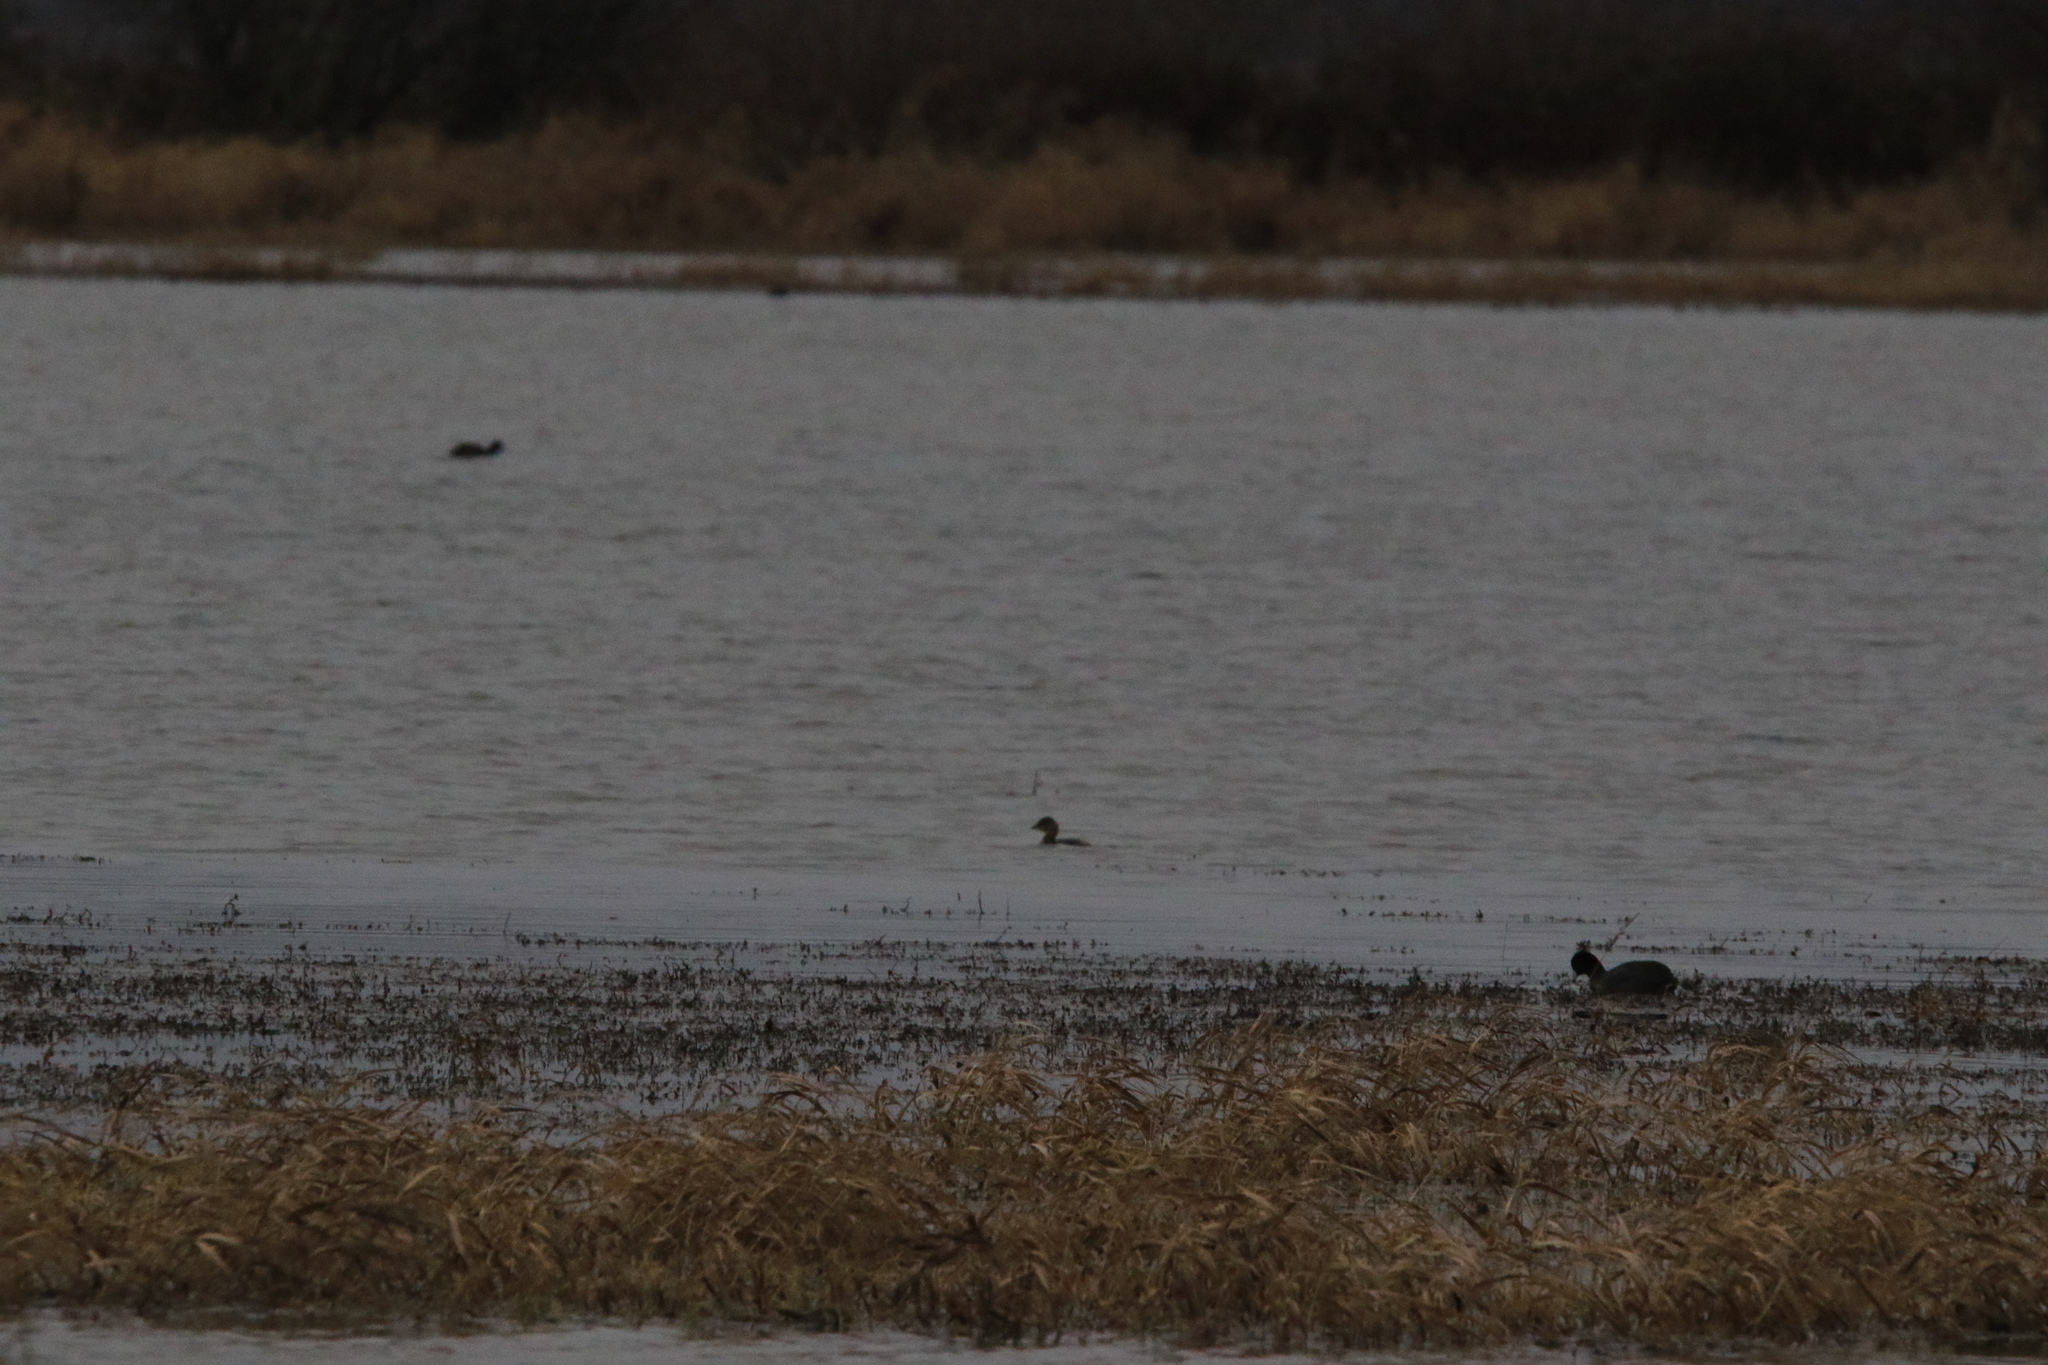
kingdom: Animalia
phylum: Chordata
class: Aves
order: Podicipediformes
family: Podicipedidae
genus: Podilymbus
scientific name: Podilymbus podiceps
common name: Pied-billed grebe
